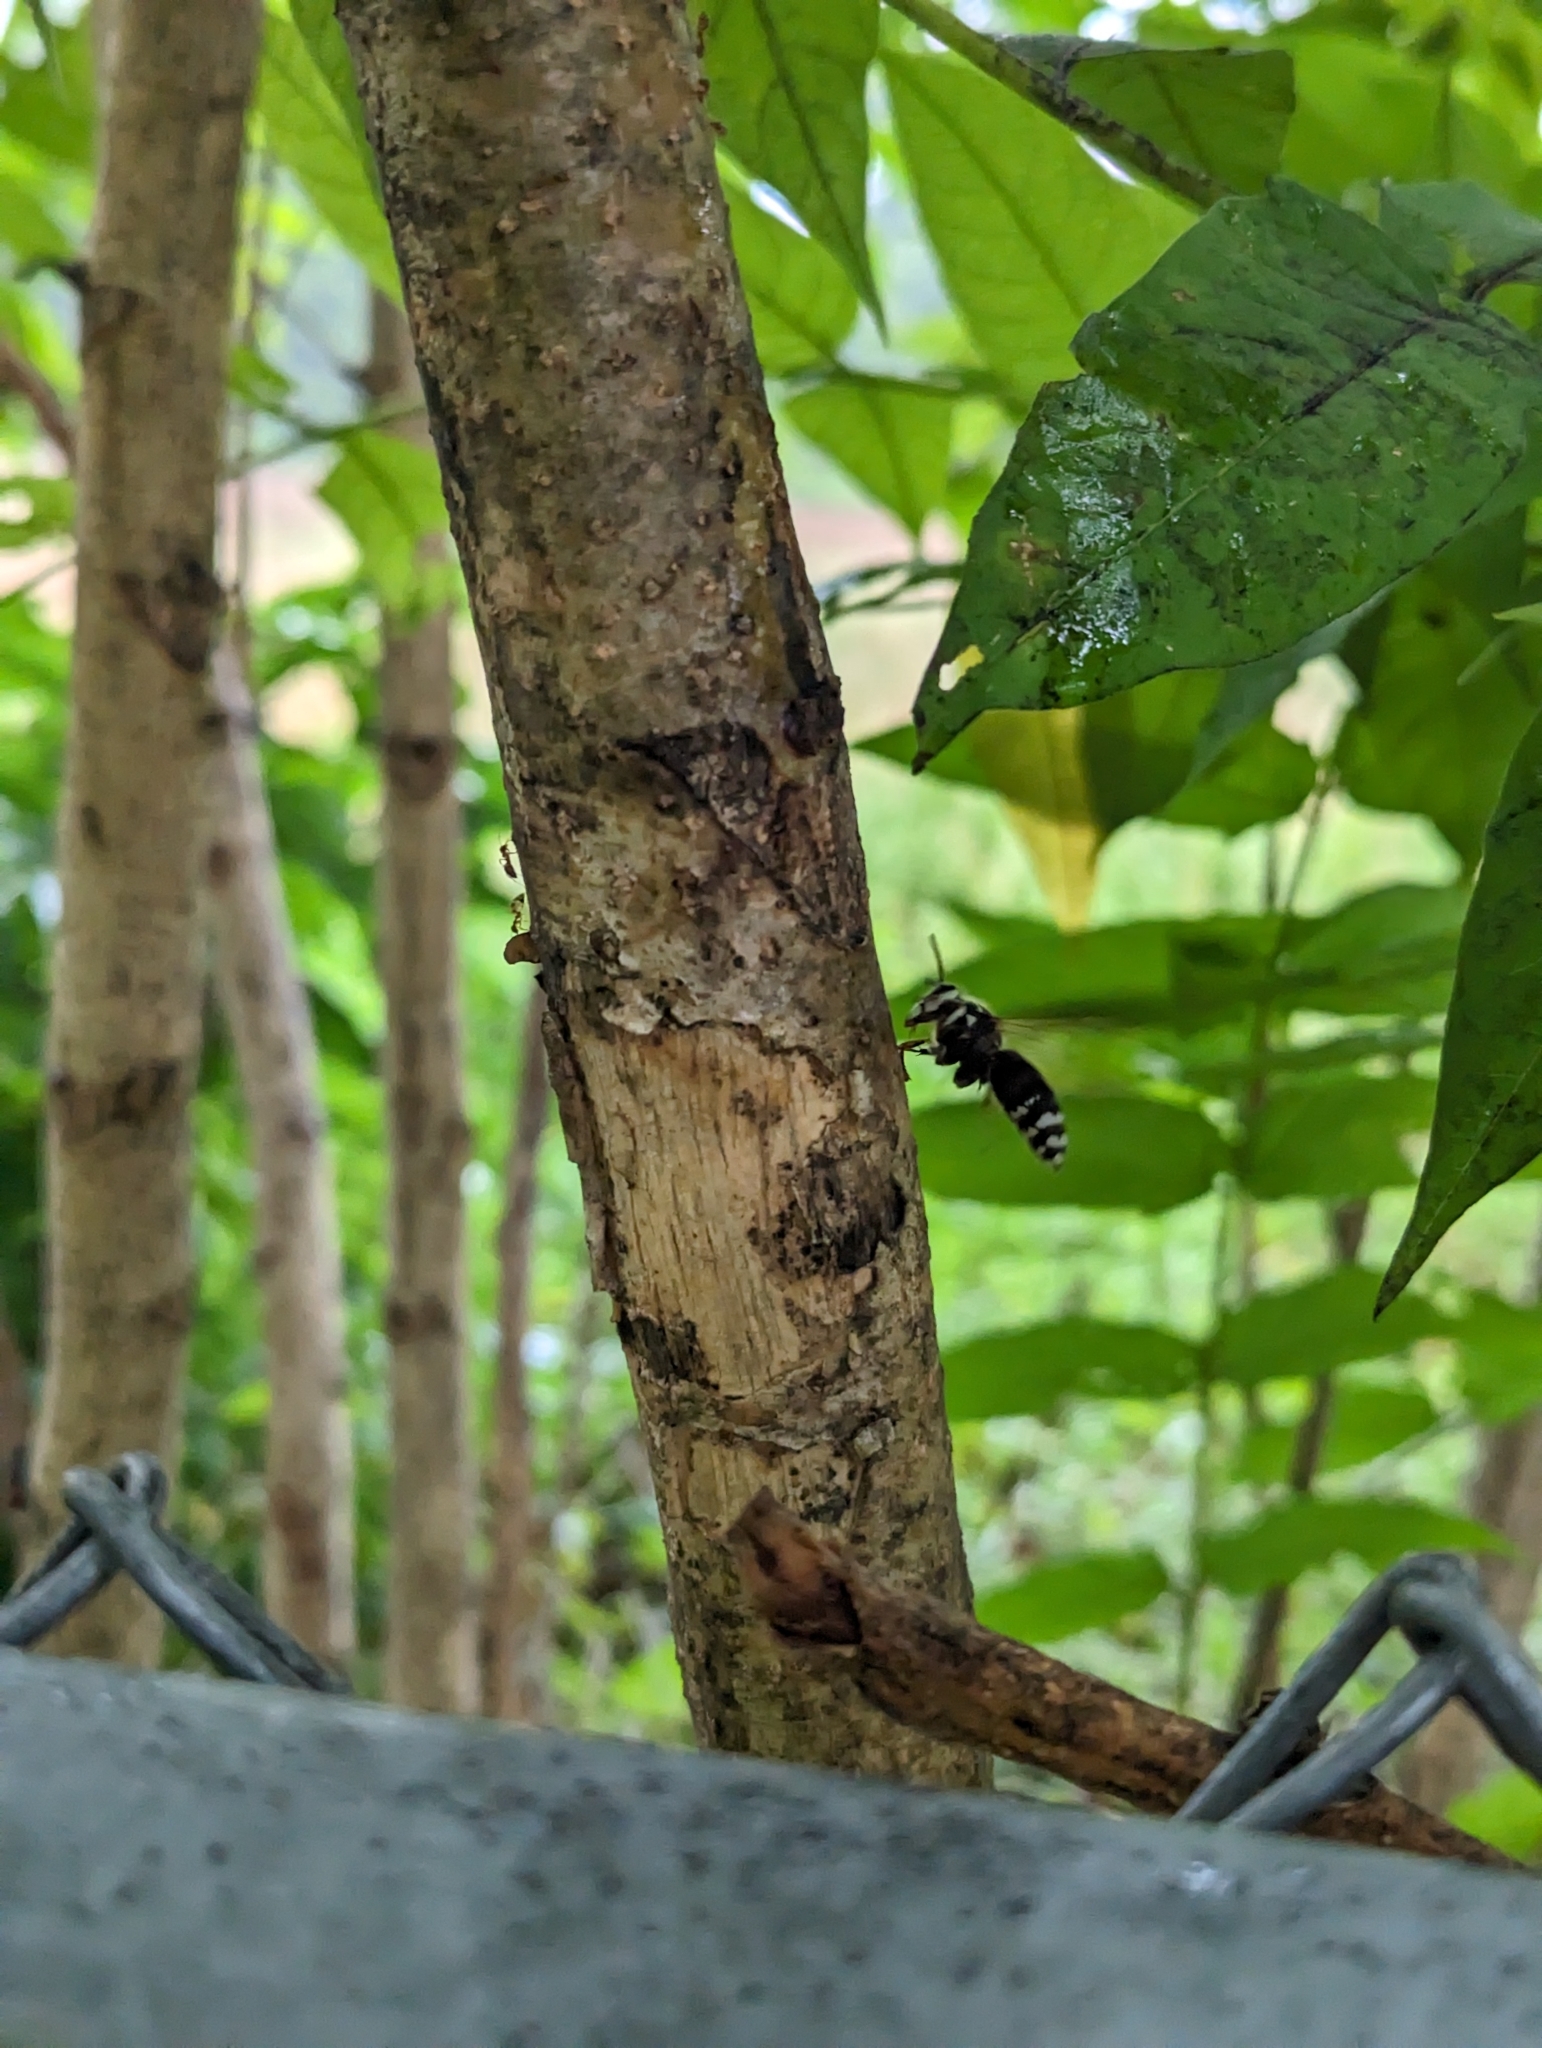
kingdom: Animalia
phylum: Arthropoda
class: Insecta
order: Hymenoptera
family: Vespidae
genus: Dolichovespula
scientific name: Dolichovespula maculata
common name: Bald-faced hornet
